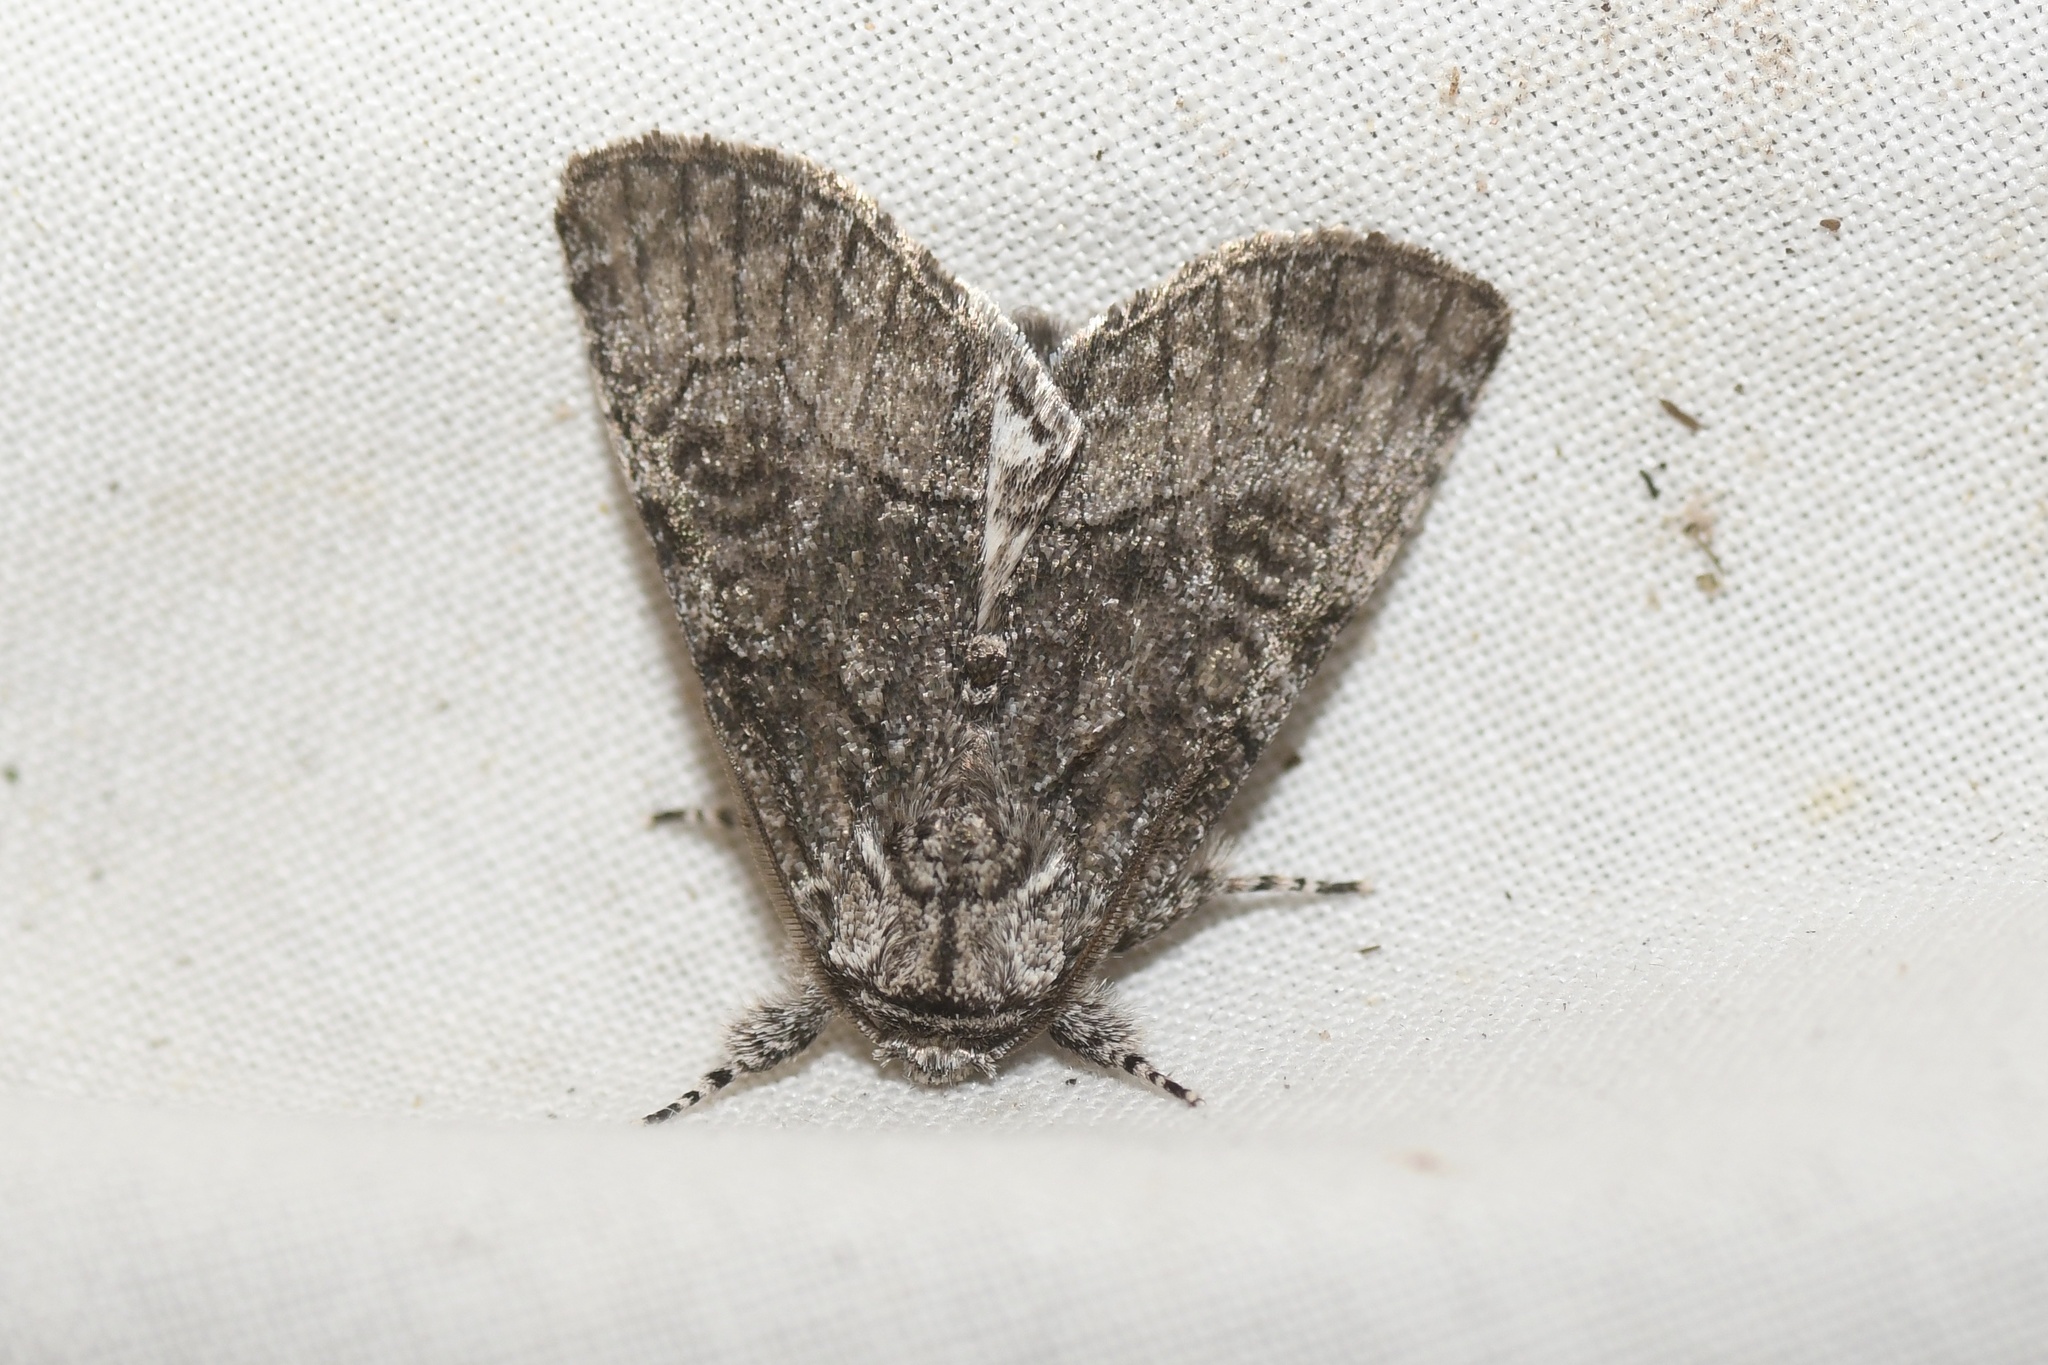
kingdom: Animalia
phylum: Arthropoda
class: Insecta
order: Lepidoptera
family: Noctuidae
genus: Raphia
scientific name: Raphia frater
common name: Brother
